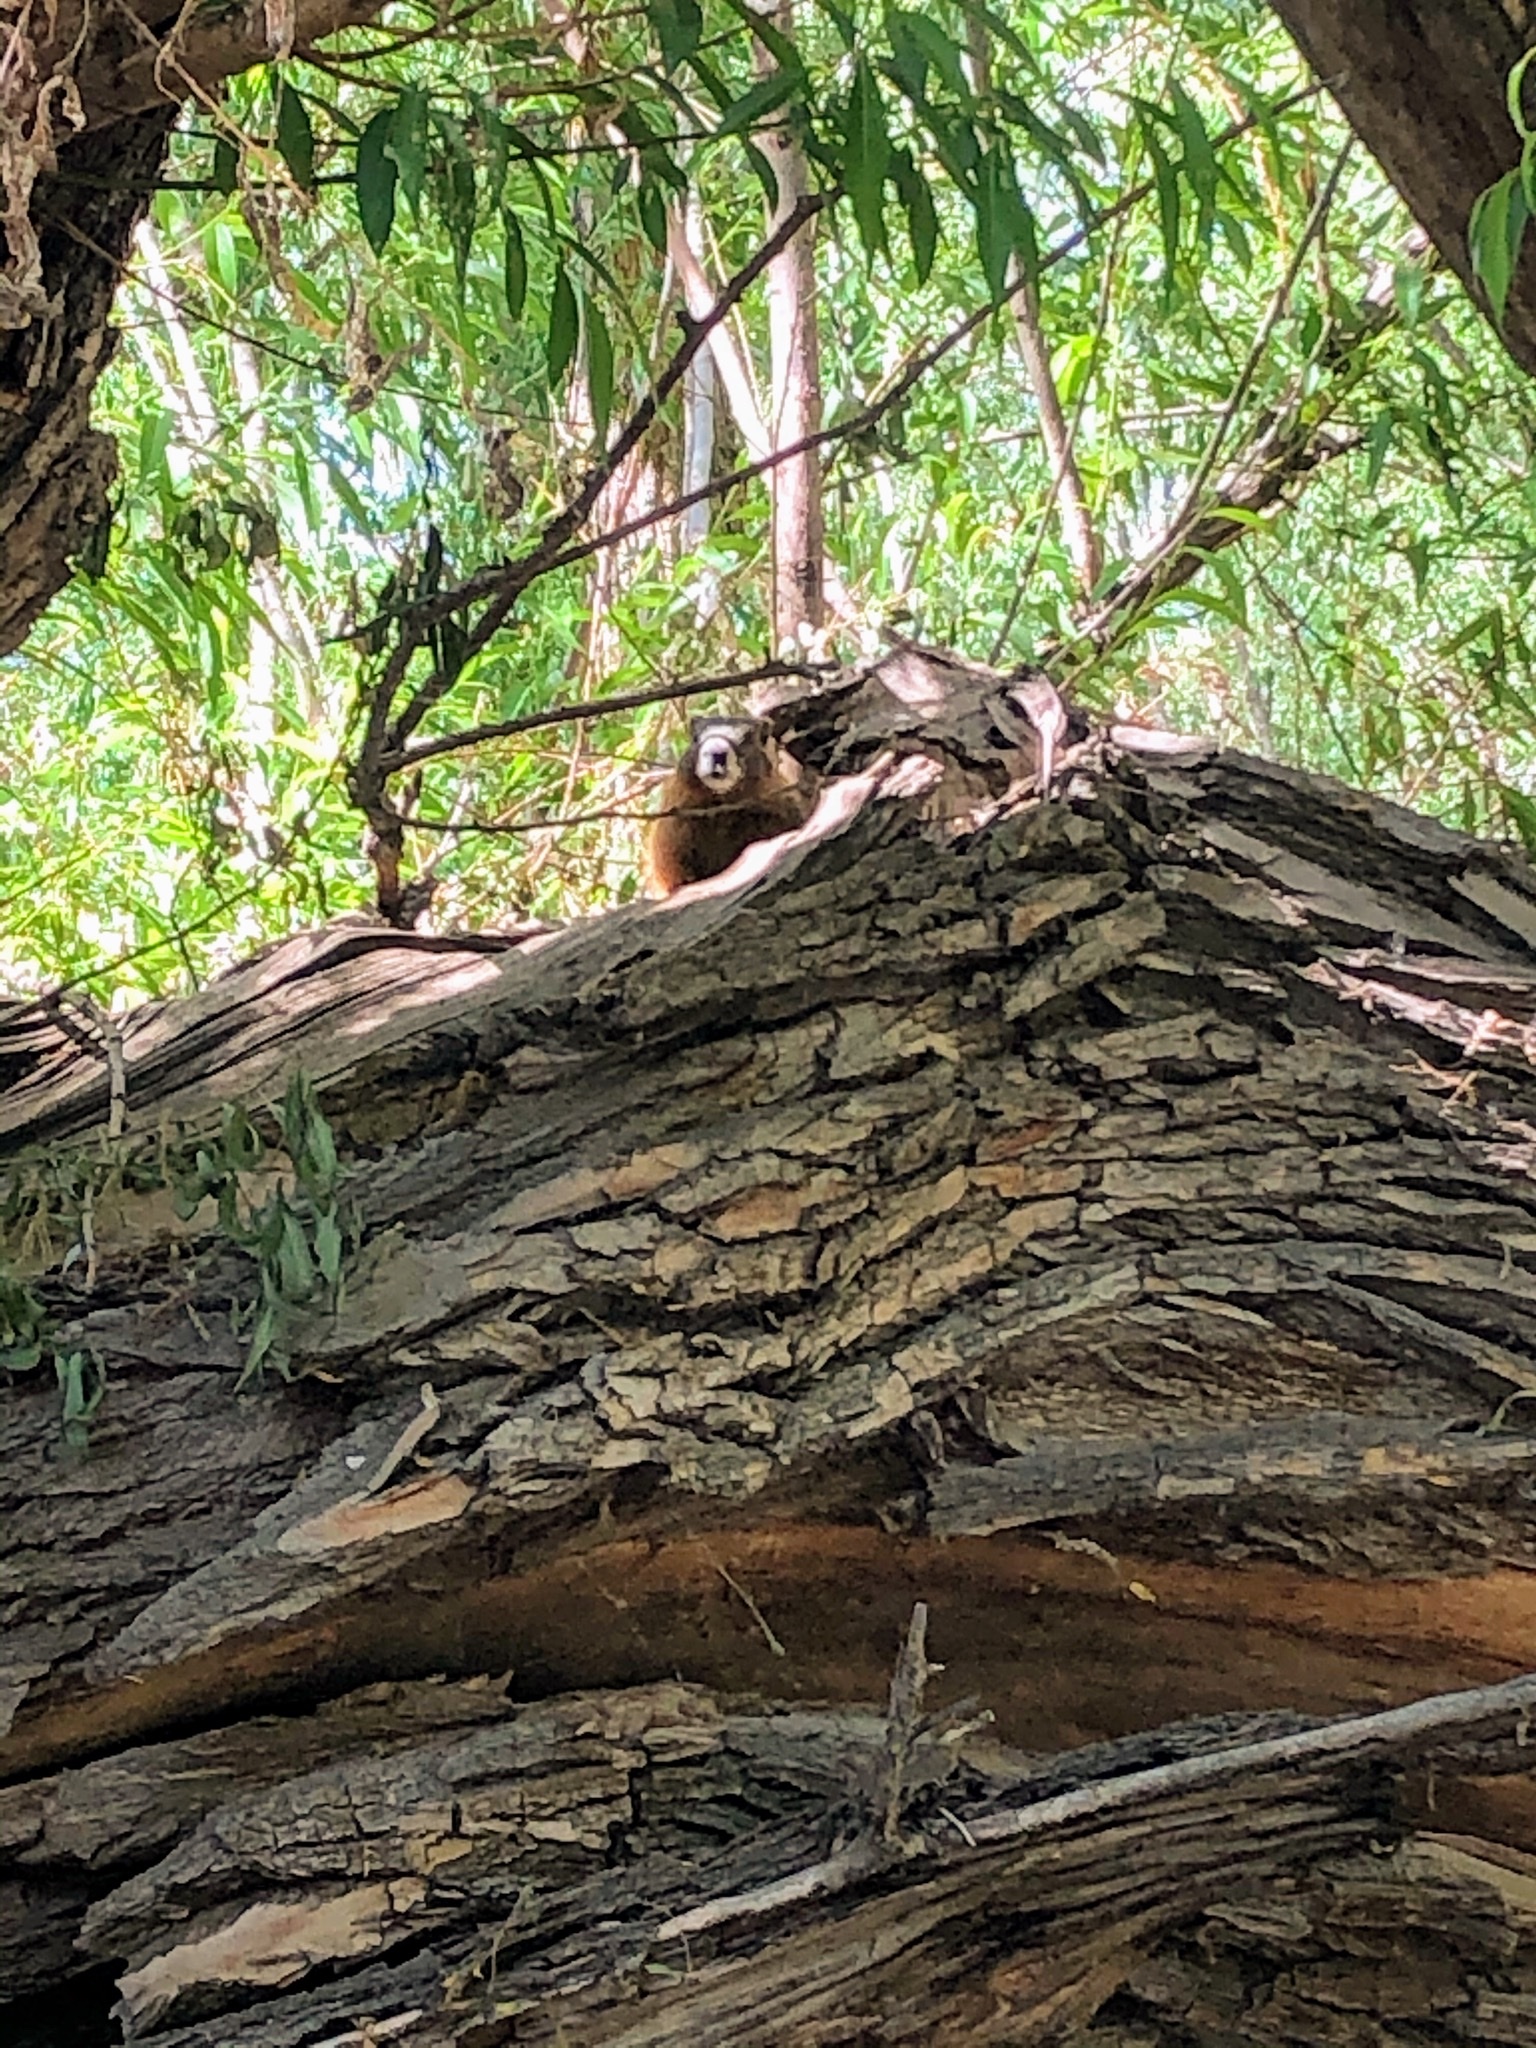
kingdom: Animalia
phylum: Chordata
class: Mammalia
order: Rodentia
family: Sciuridae
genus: Marmota
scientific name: Marmota flaviventris
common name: Yellow-bellied marmot
